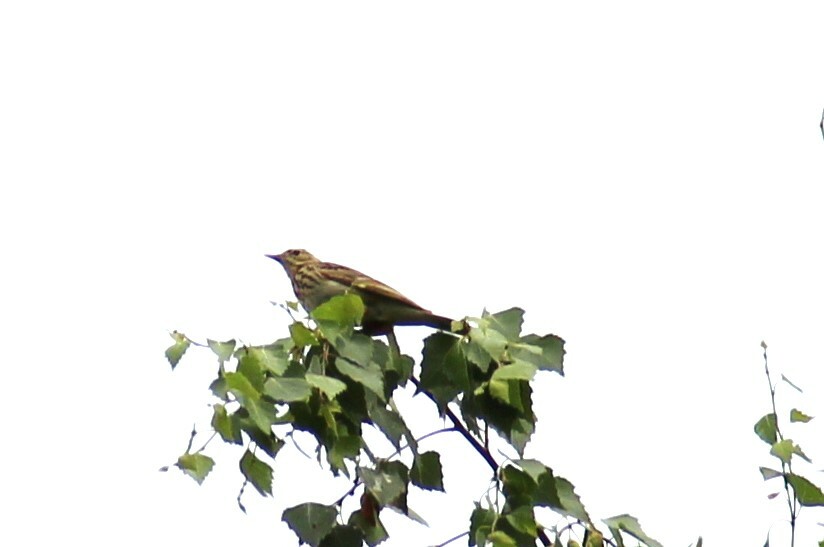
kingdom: Animalia
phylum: Chordata
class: Aves
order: Passeriformes
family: Motacillidae
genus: Anthus
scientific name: Anthus trivialis
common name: Tree pipit
